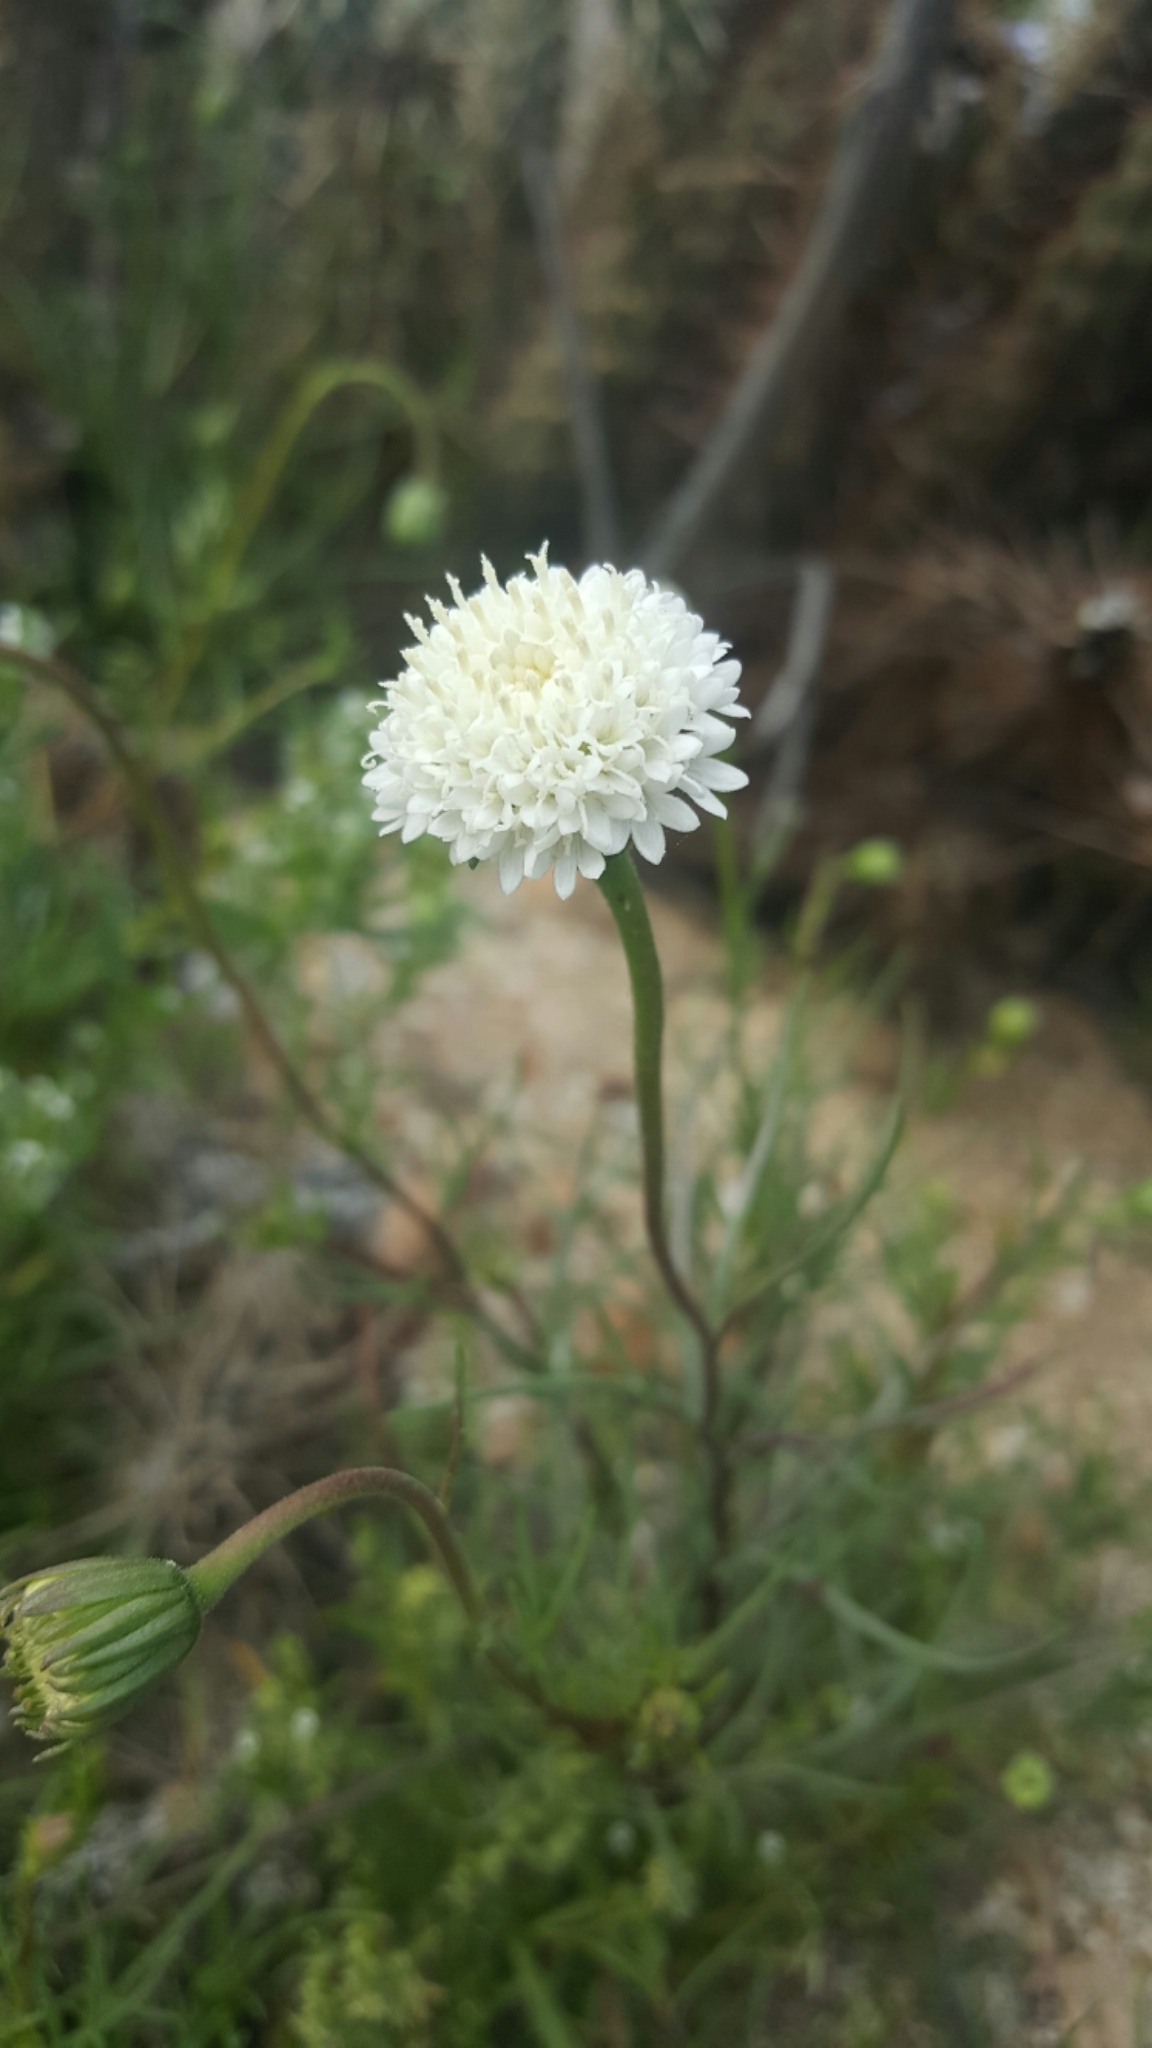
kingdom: Plantae
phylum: Tracheophyta
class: Magnoliopsida
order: Asterales
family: Asteraceae
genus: Chaenactis
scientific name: Chaenactis fremontii
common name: Fremont pincushion
